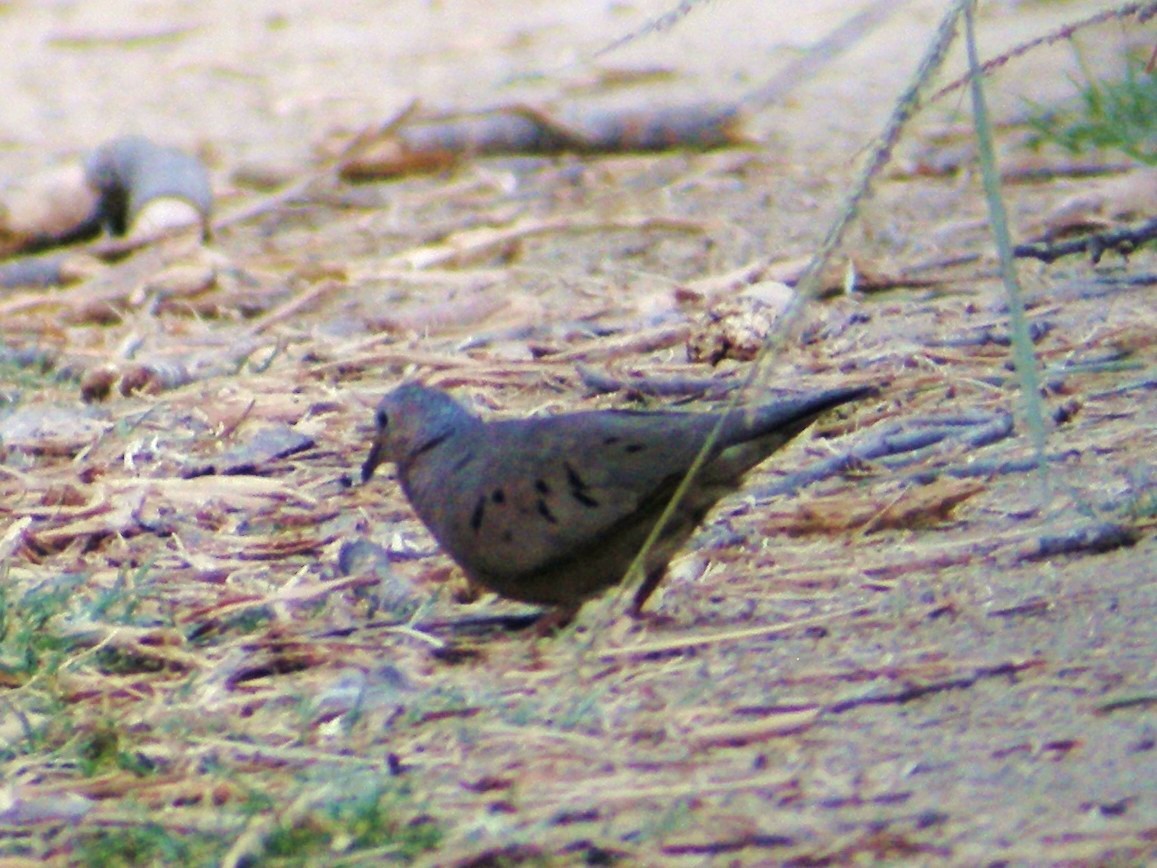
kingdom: Animalia
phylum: Chordata
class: Aves
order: Columbiformes
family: Columbidae
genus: Columbina
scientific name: Columbina passerina
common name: Common ground-dove
